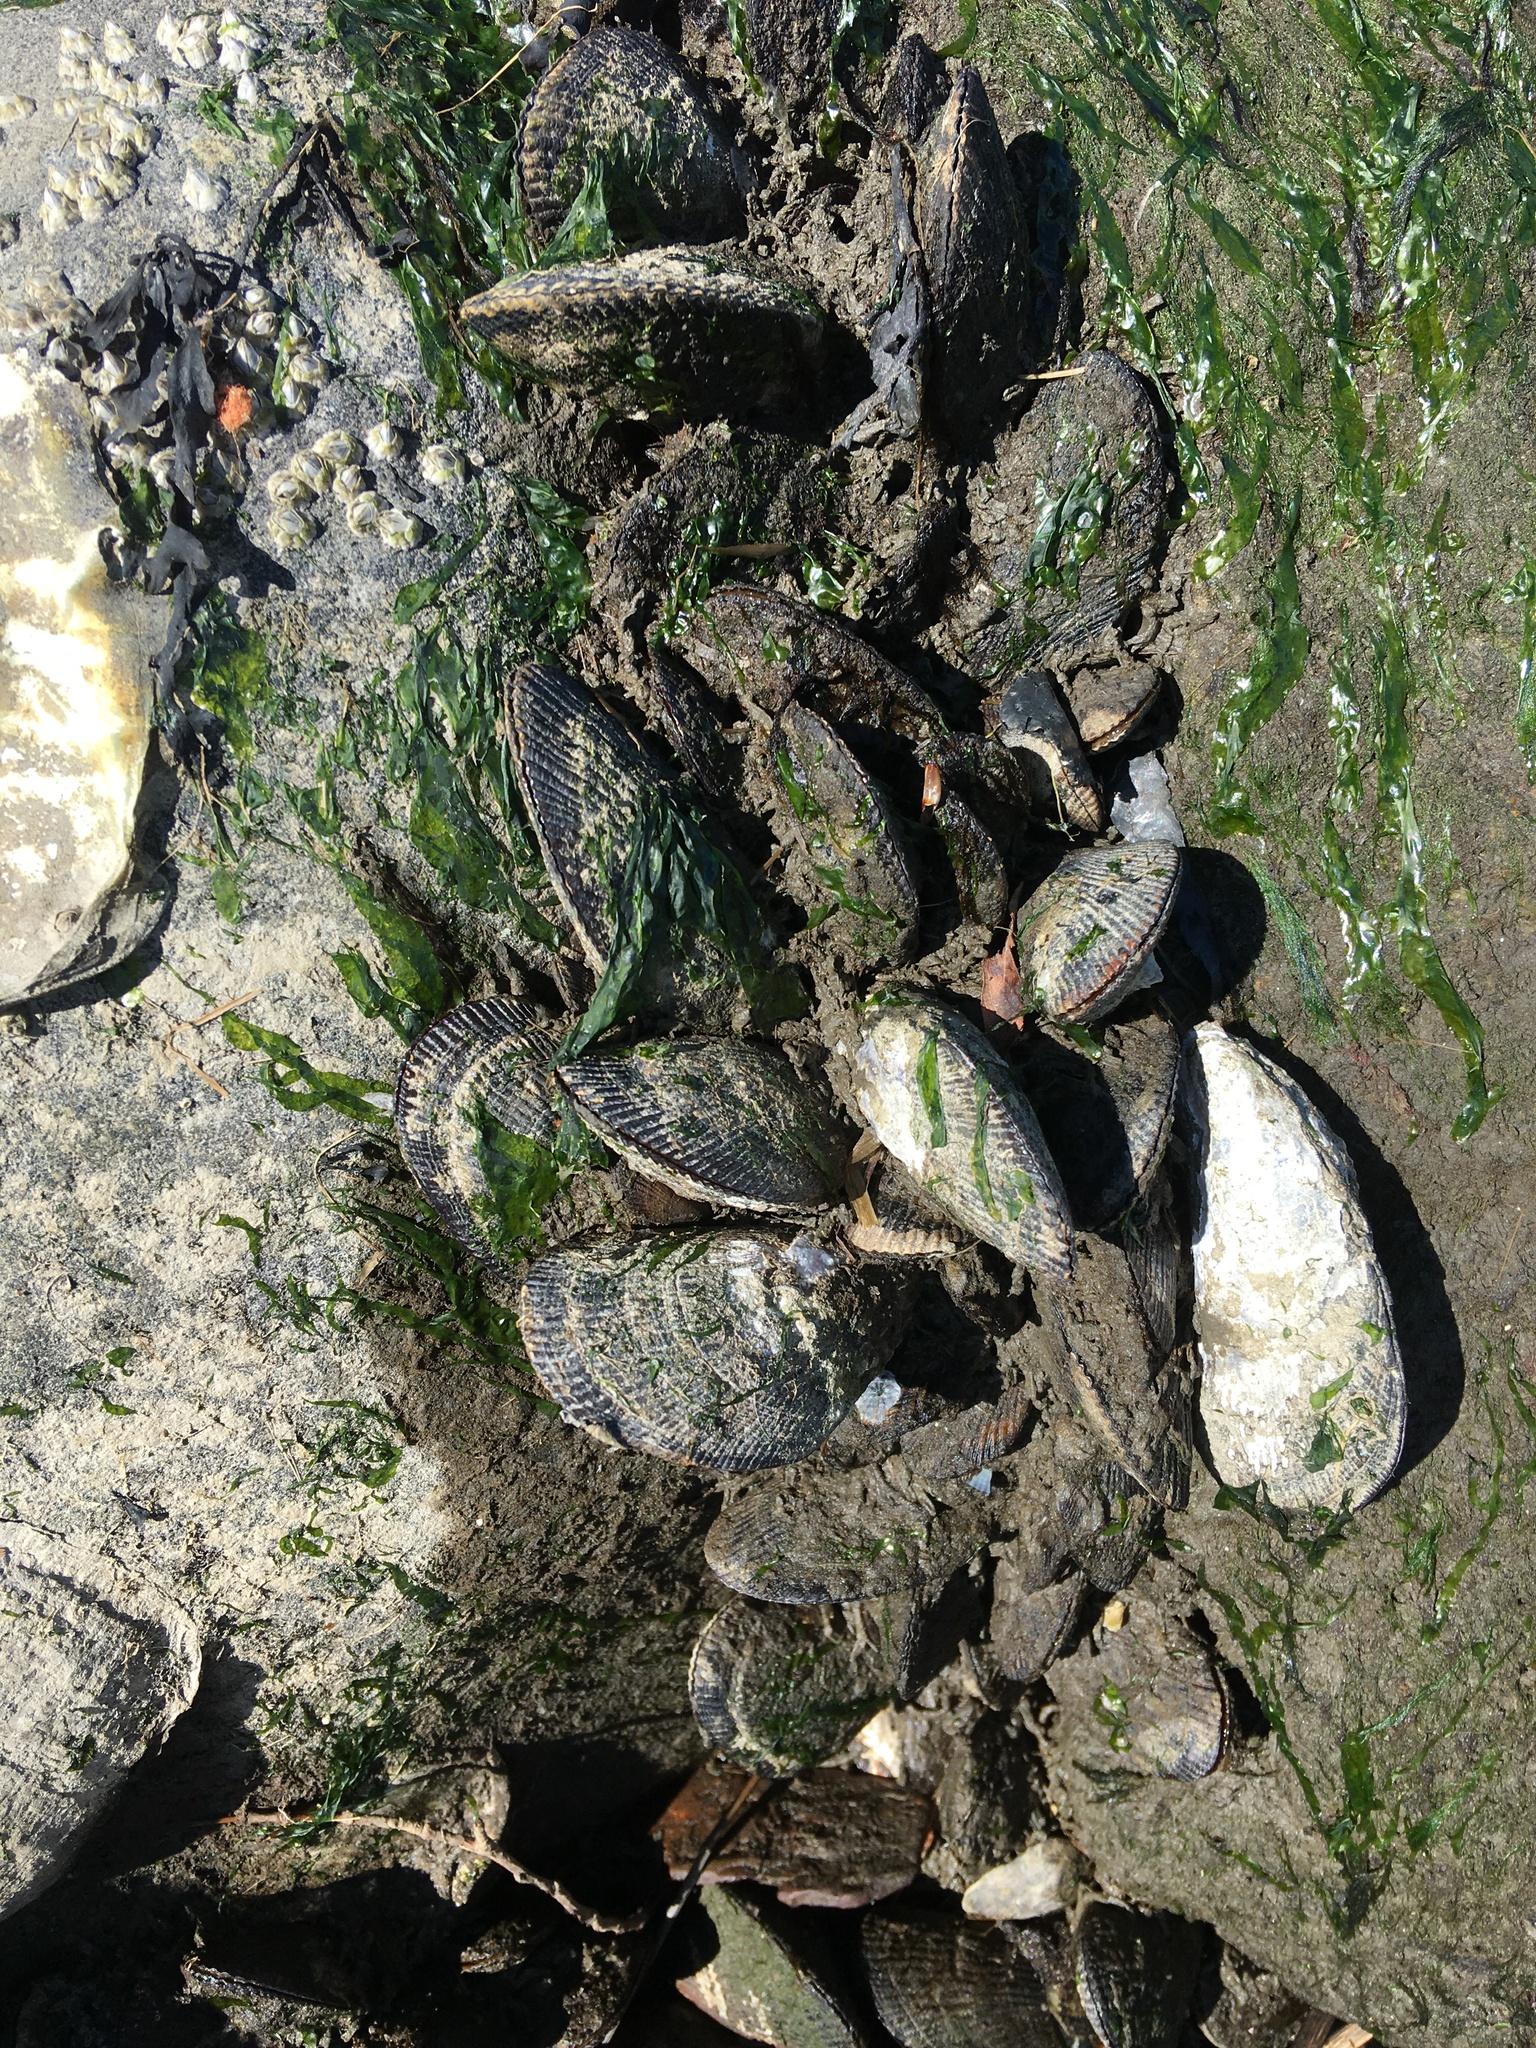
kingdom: Animalia
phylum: Mollusca
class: Bivalvia
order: Mytilida
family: Mytilidae
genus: Geukensia
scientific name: Geukensia demissa
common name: Ribbed mussel
